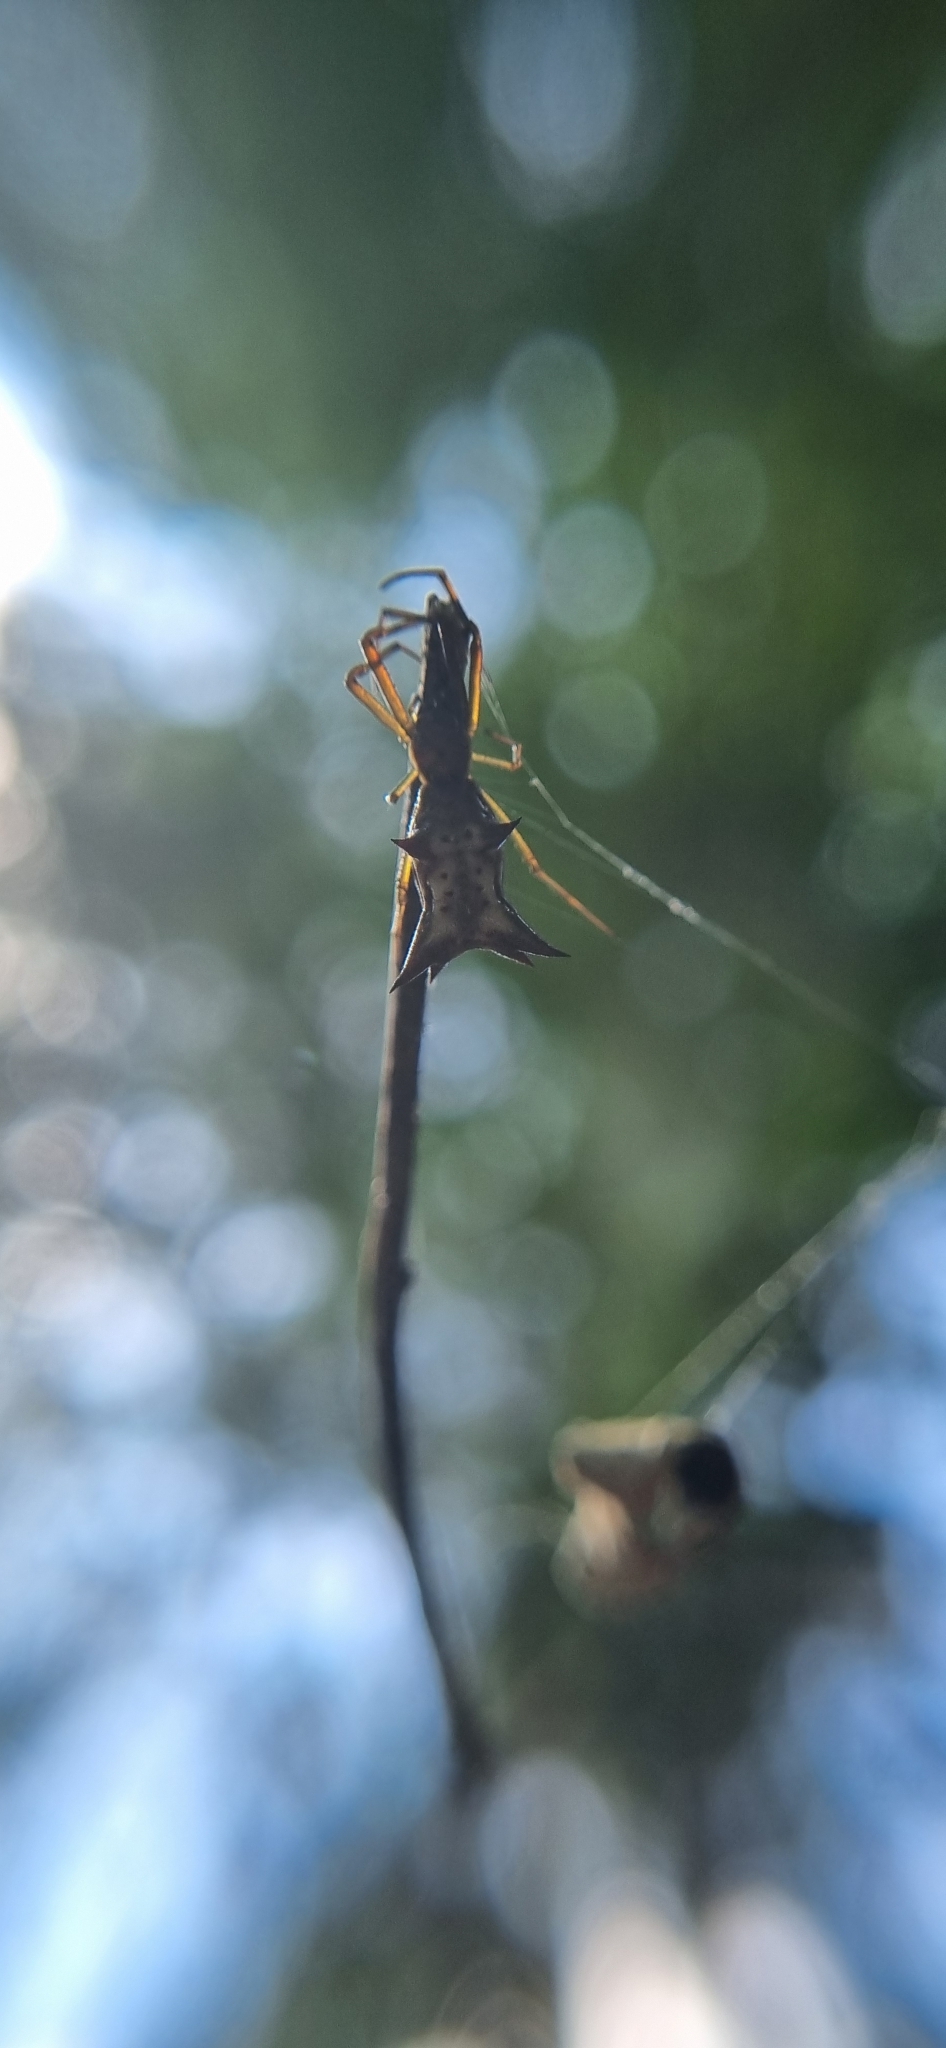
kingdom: Animalia
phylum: Arthropoda
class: Arachnida
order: Araneae
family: Araneidae
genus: Micrathena
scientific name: Micrathena nigrichelis
